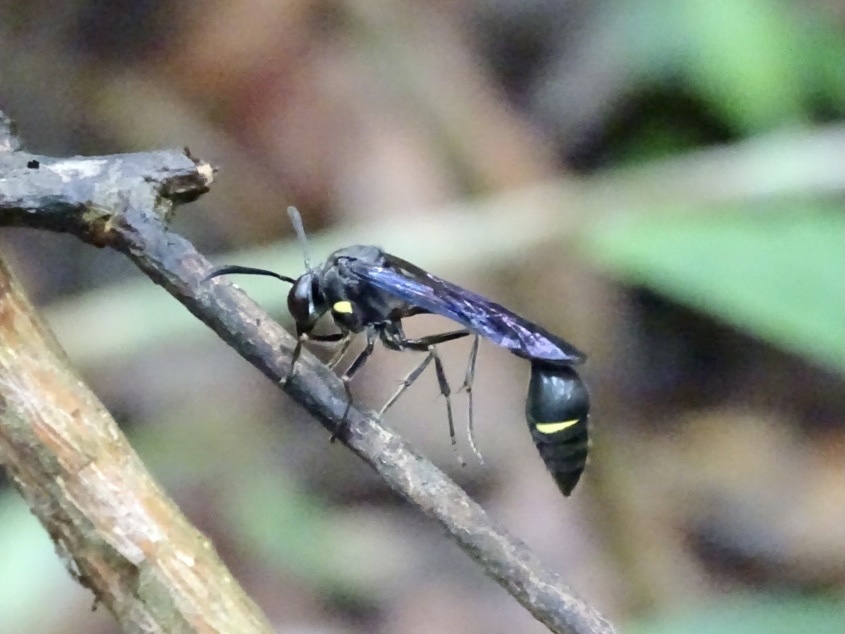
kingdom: Animalia
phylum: Arthropoda
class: Insecta
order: Hymenoptera
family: Vespidae
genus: Eustenogaster
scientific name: Eustenogaster nigra
